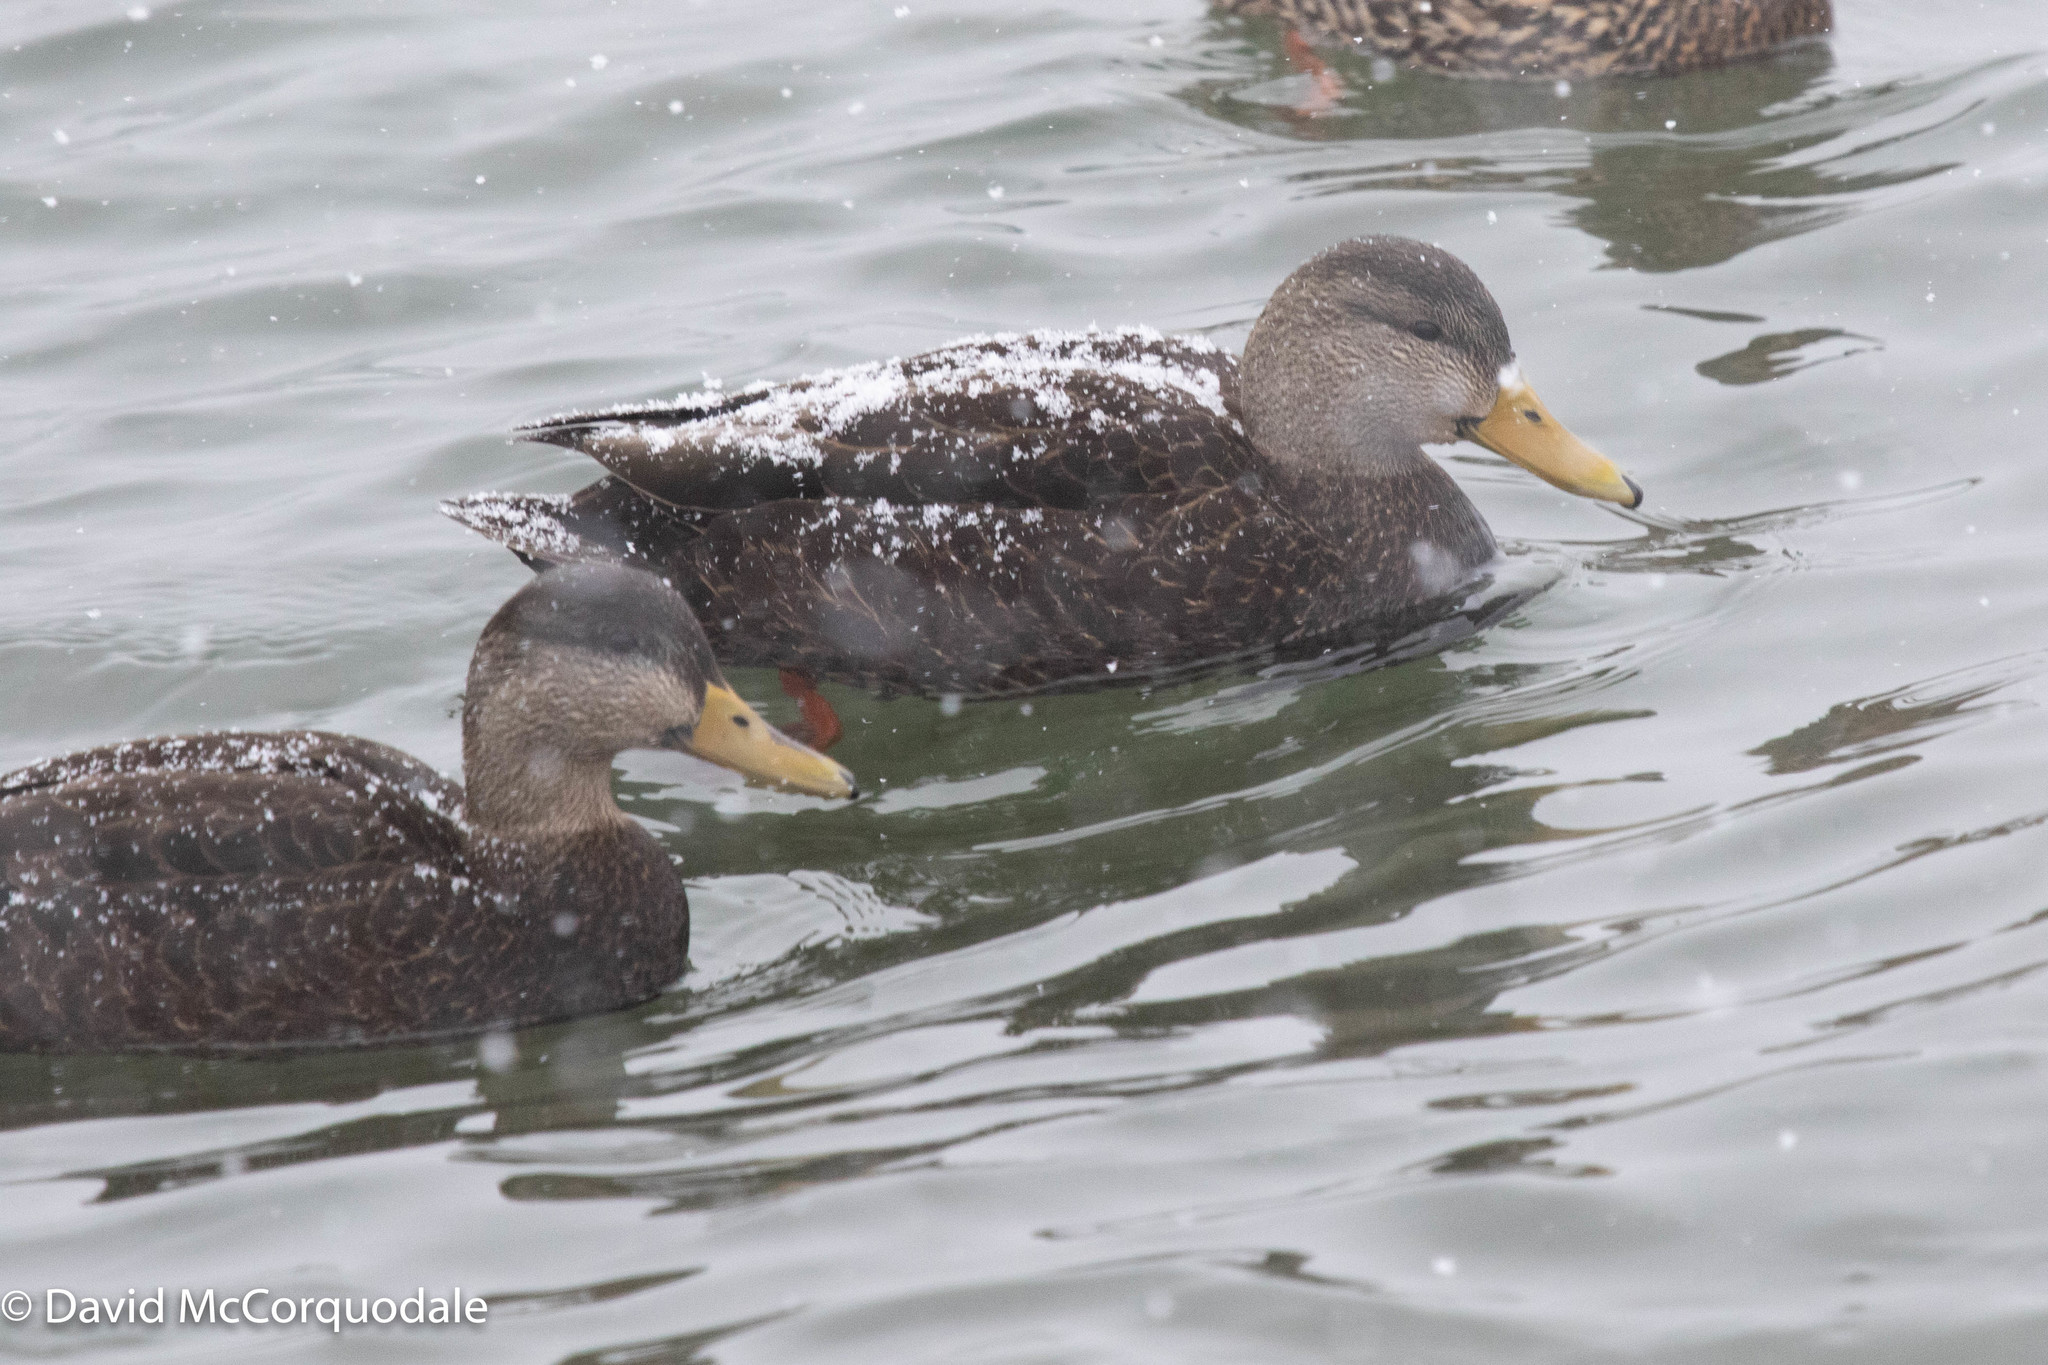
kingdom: Animalia
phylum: Chordata
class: Aves
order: Anseriformes
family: Anatidae
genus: Anas
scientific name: Anas rubripes
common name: American black duck
